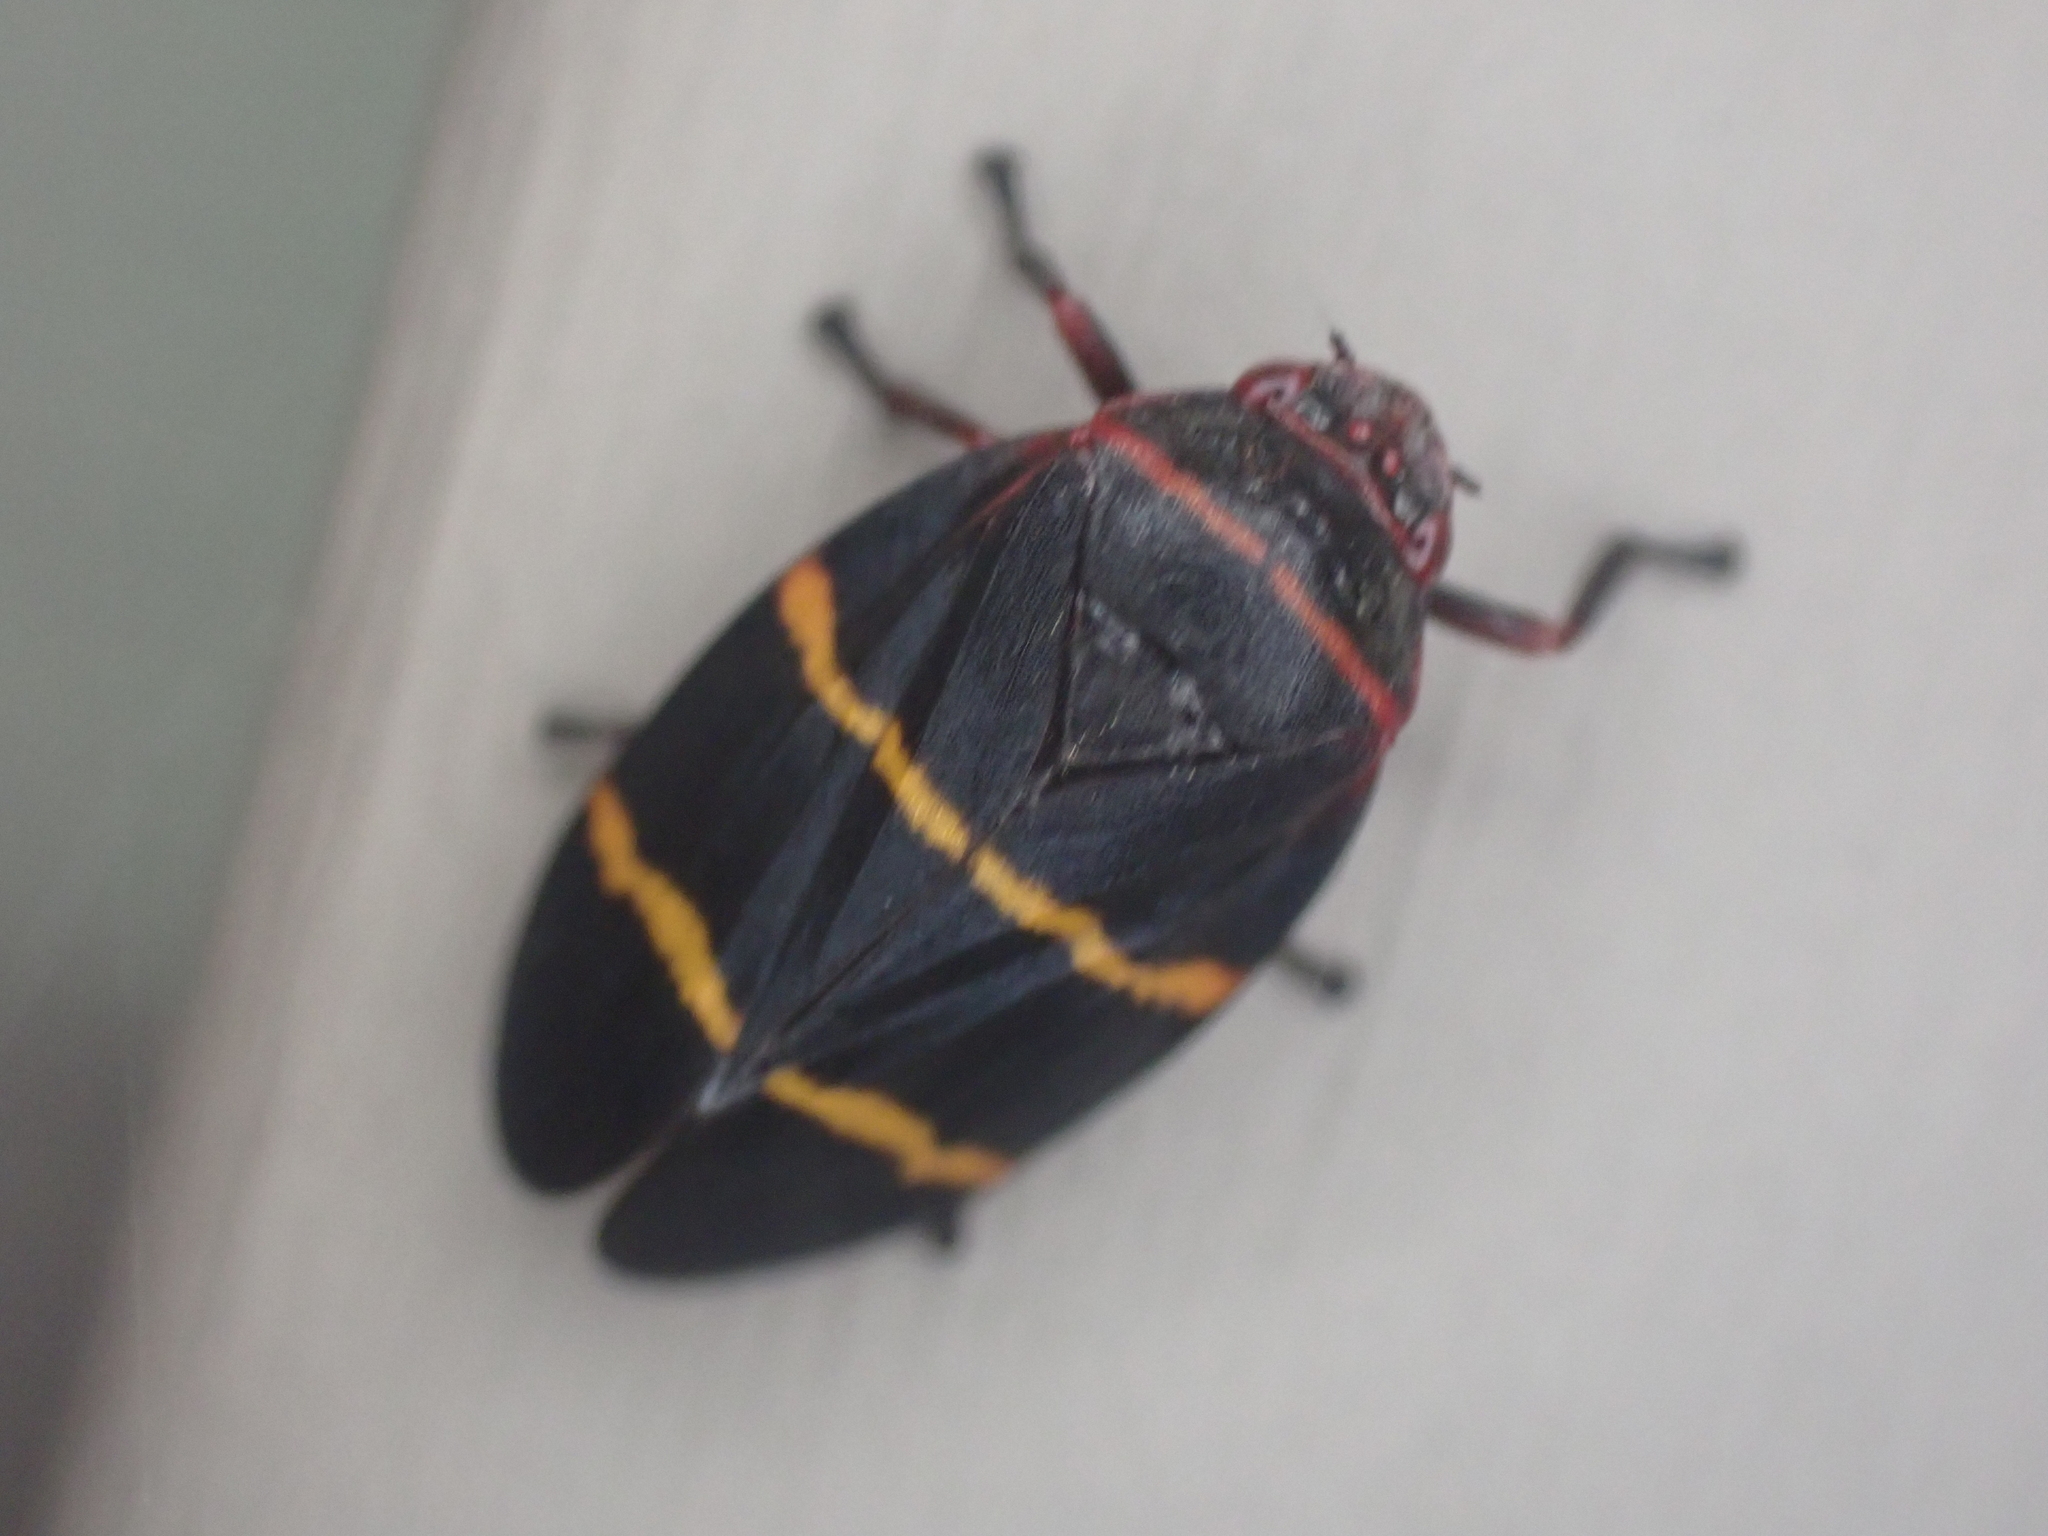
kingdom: Animalia
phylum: Arthropoda
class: Insecta
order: Hemiptera
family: Cercopidae
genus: Prosapia
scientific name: Prosapia bicincta
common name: Twolined spittlebug
